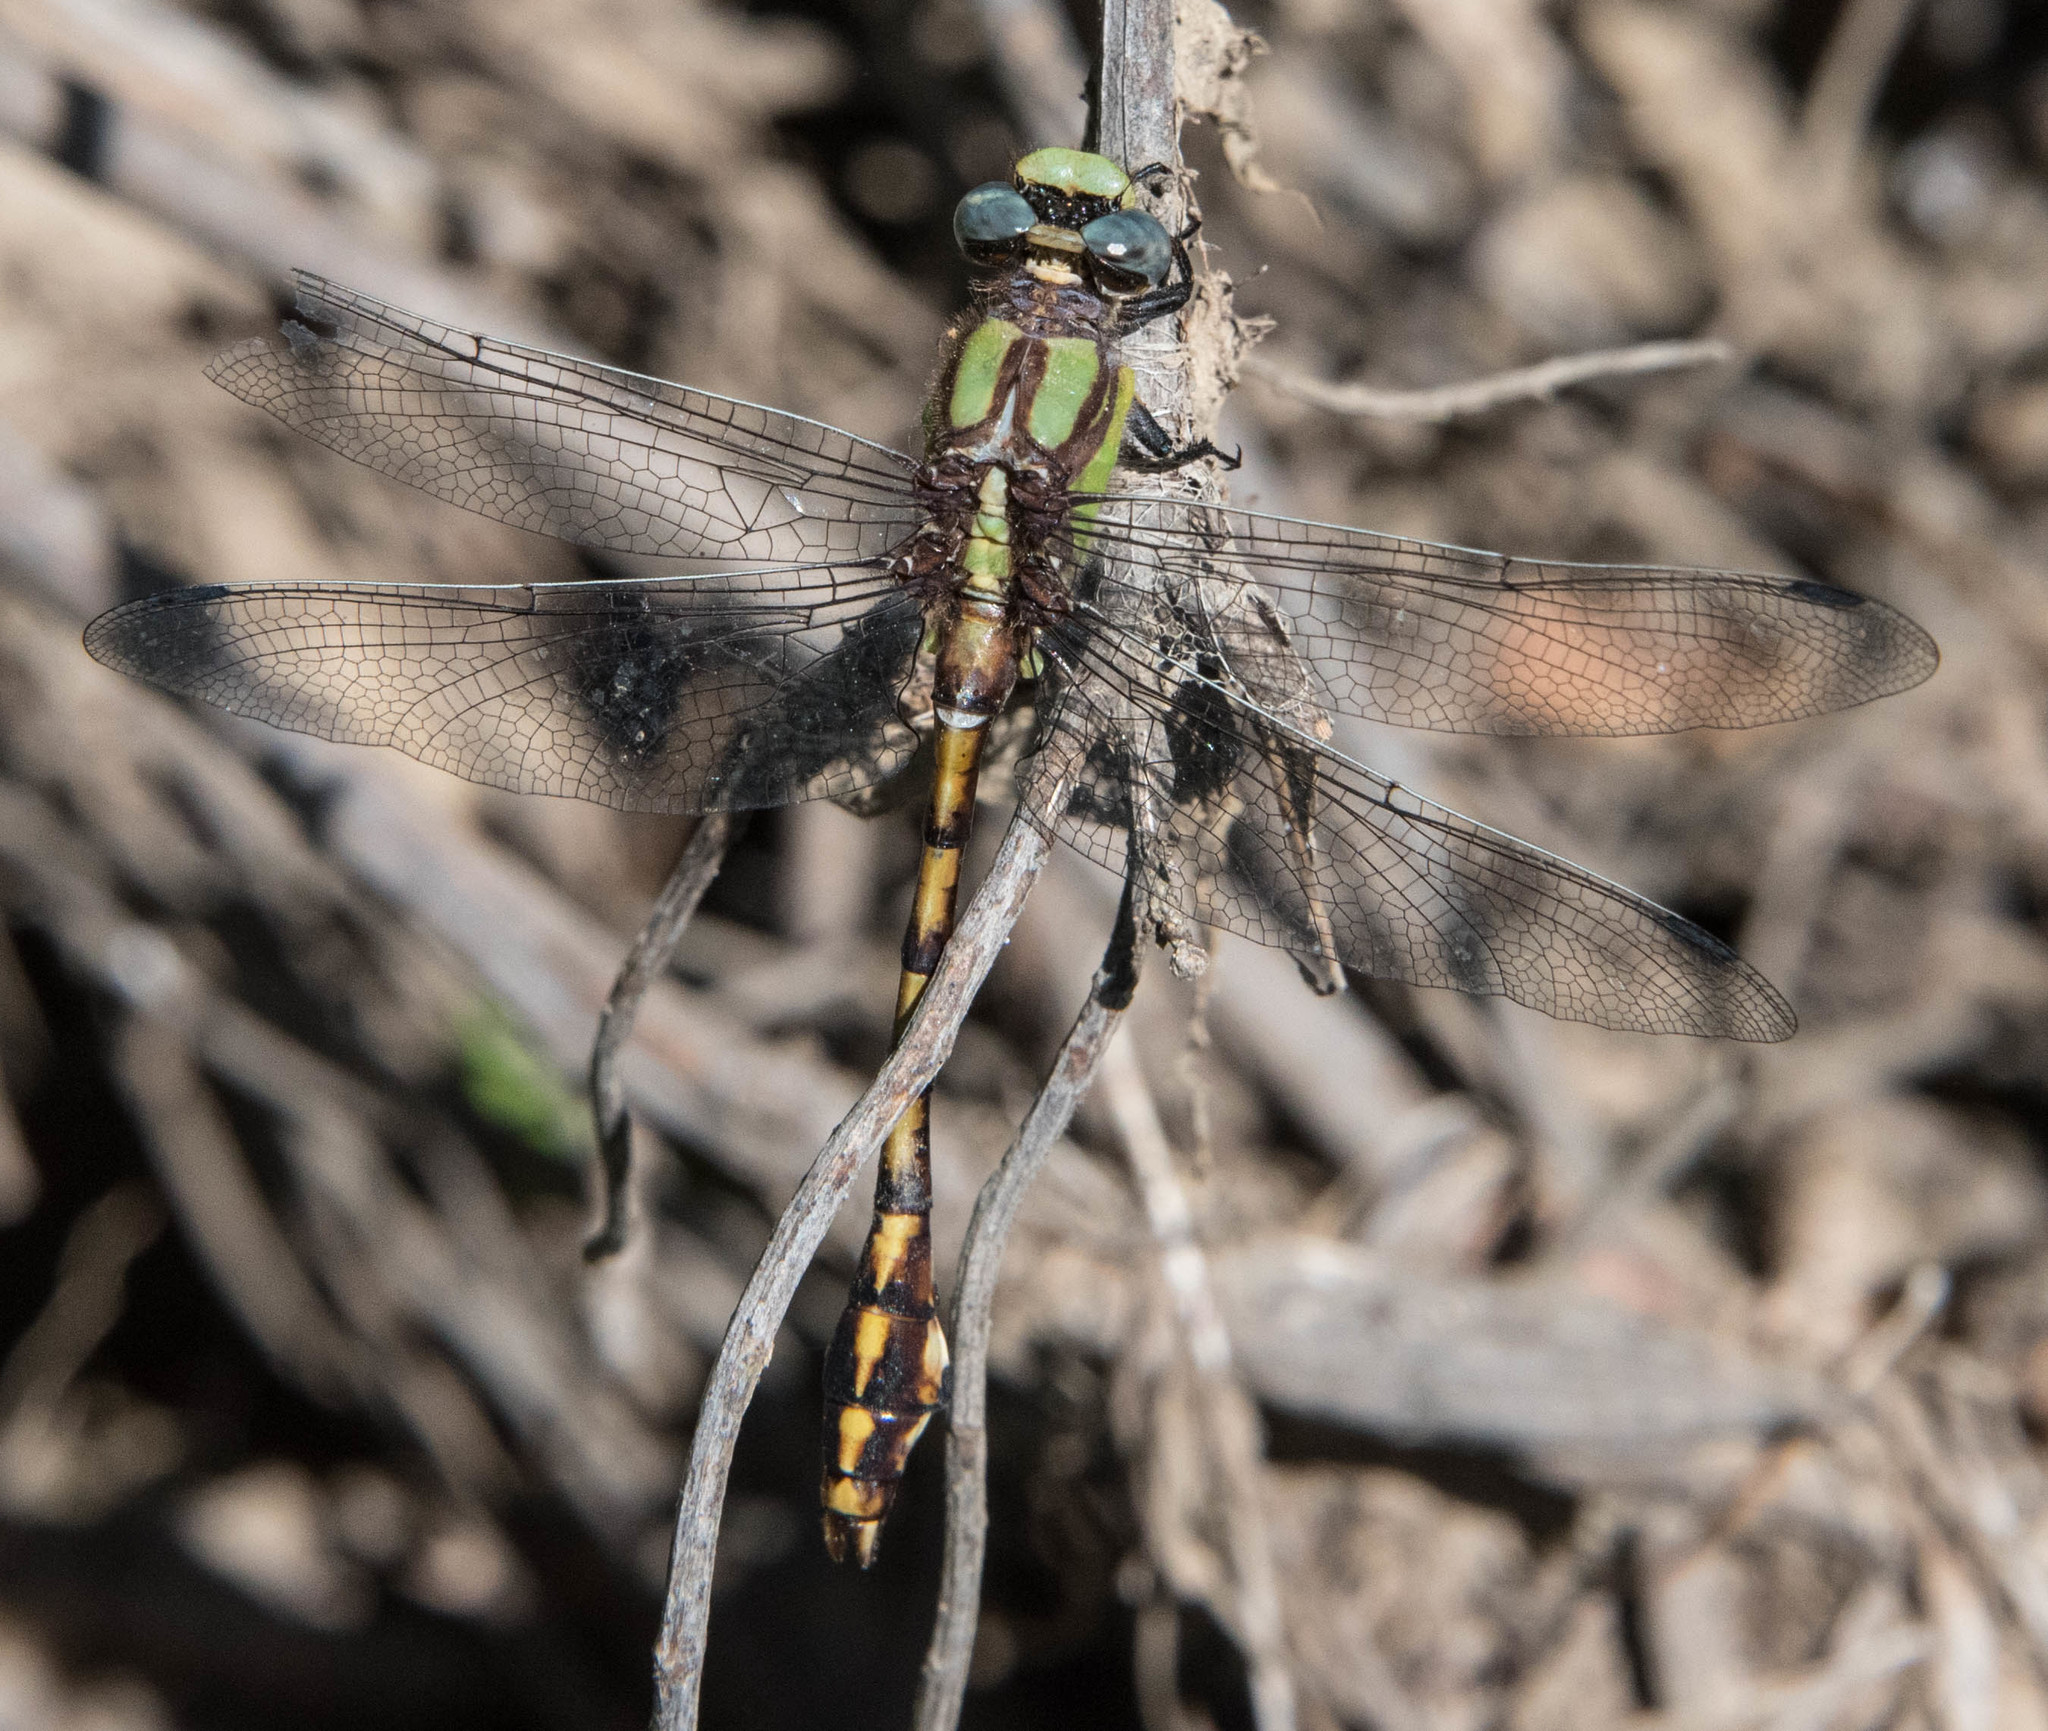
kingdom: Animalia
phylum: Arthropoda
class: Insecta
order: Odonata
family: Gomphidae
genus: Ophiogomphus
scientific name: Ophiogomphus bison
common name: Bison snaketail
